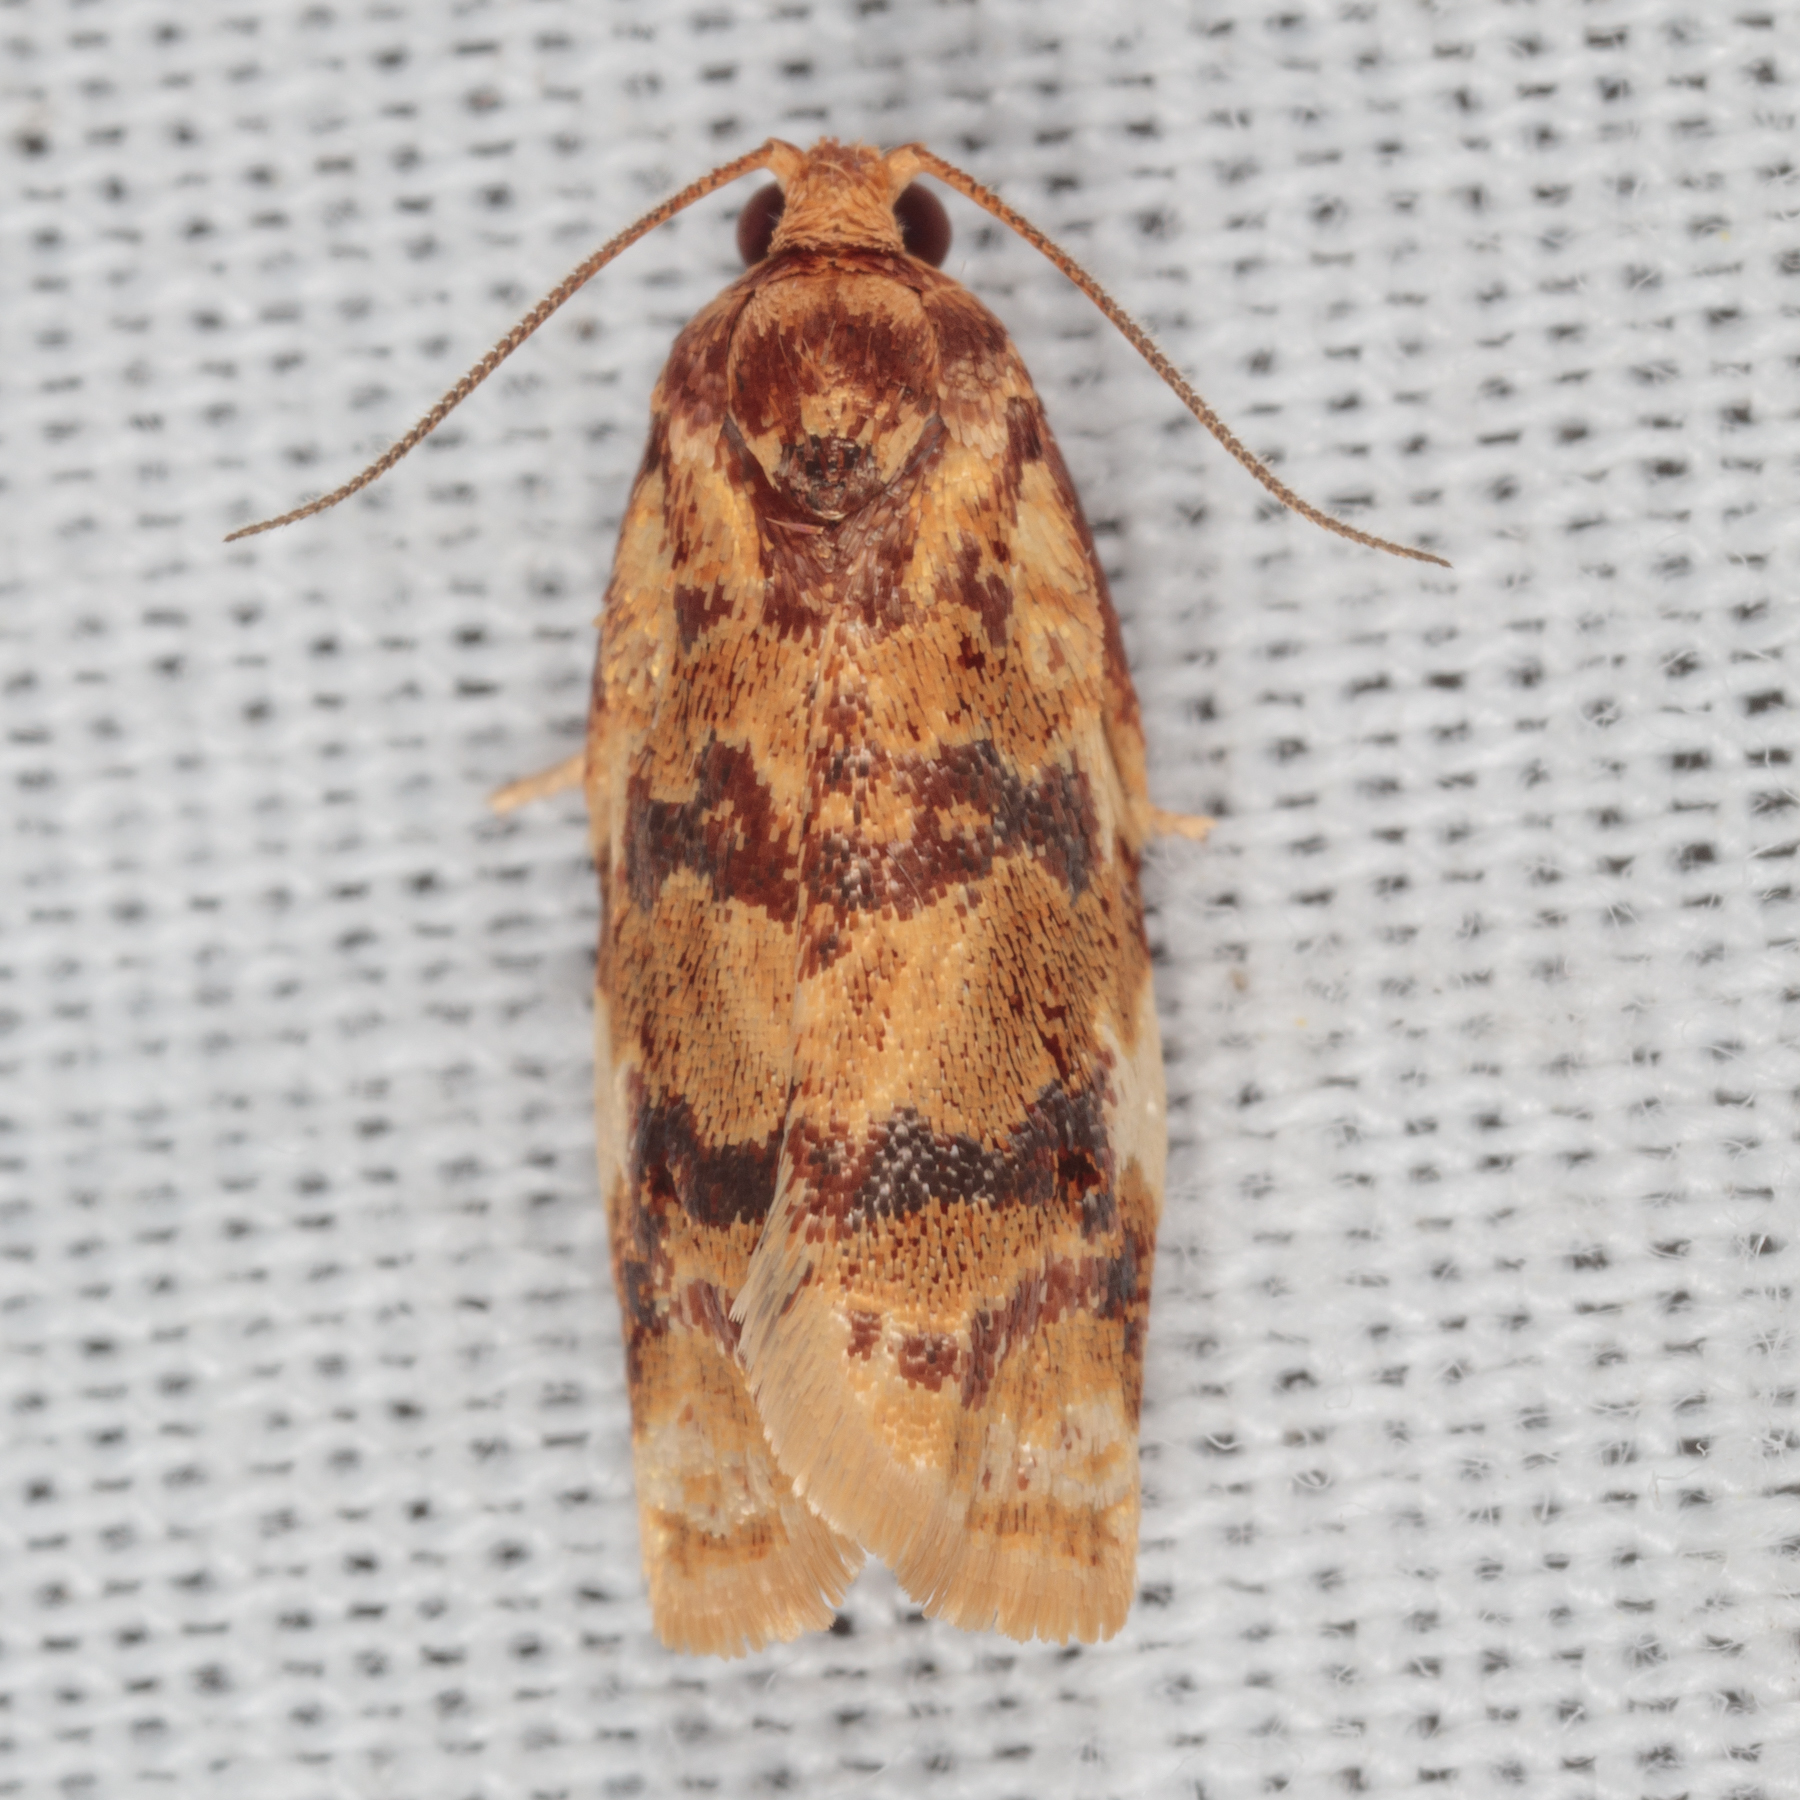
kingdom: Animalia
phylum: Arthropoda
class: Insecta
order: Lepidoptera
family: Tortricidae
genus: Archips
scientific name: Archips argyrospila
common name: Fruit-tree leafroller moth
